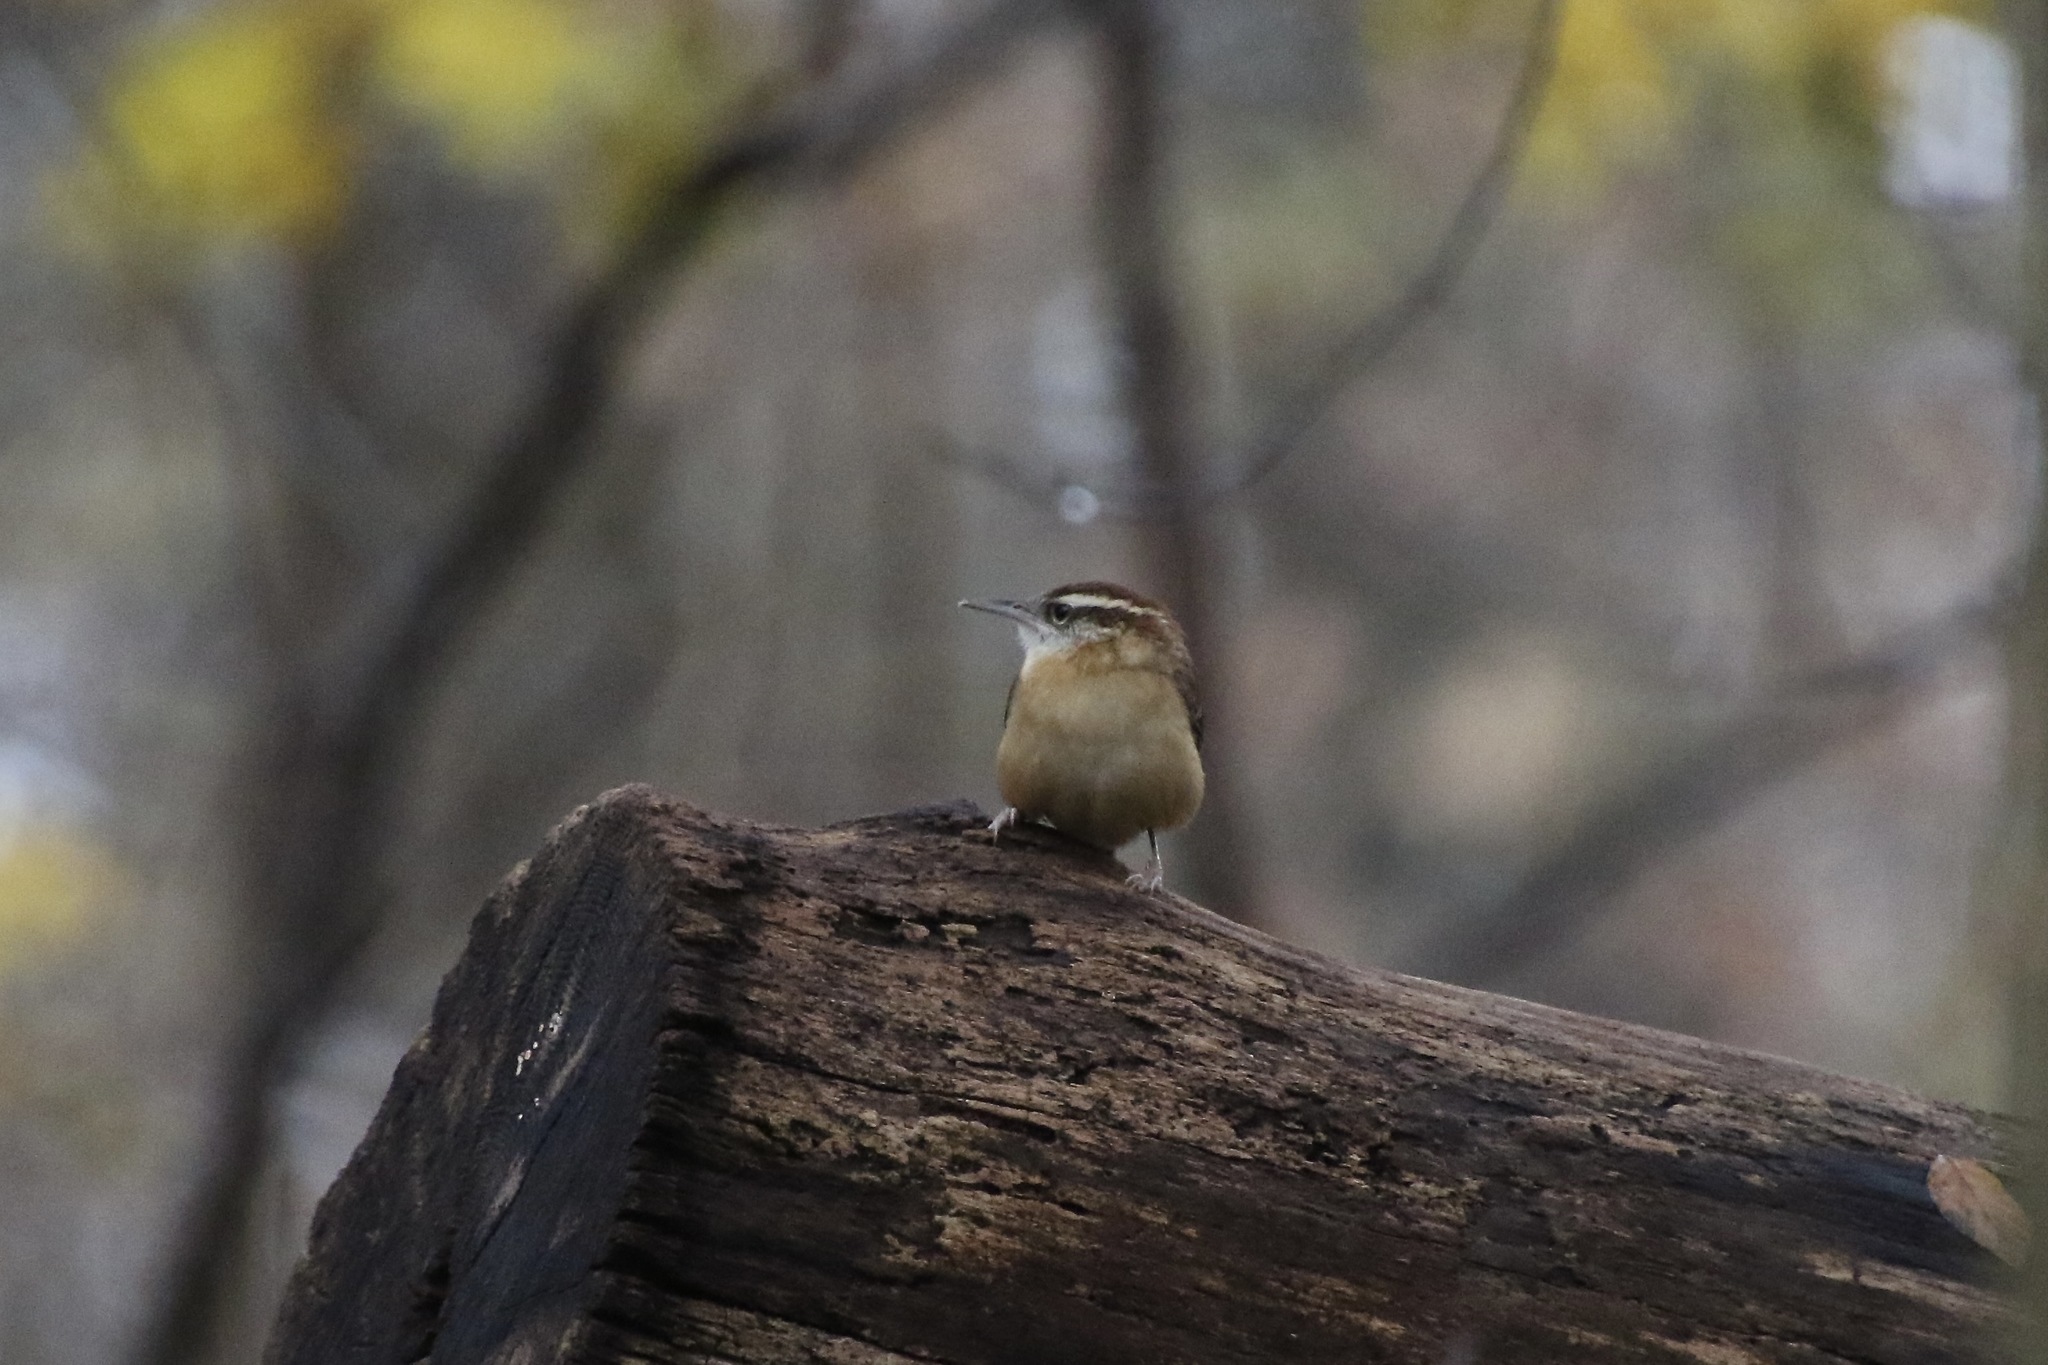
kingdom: Animalia
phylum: Chordata
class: Aves
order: Passeriformes
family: Troglodytidae
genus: Thryothorus
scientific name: Thryothorus ludovicianus
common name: Carolina wren
